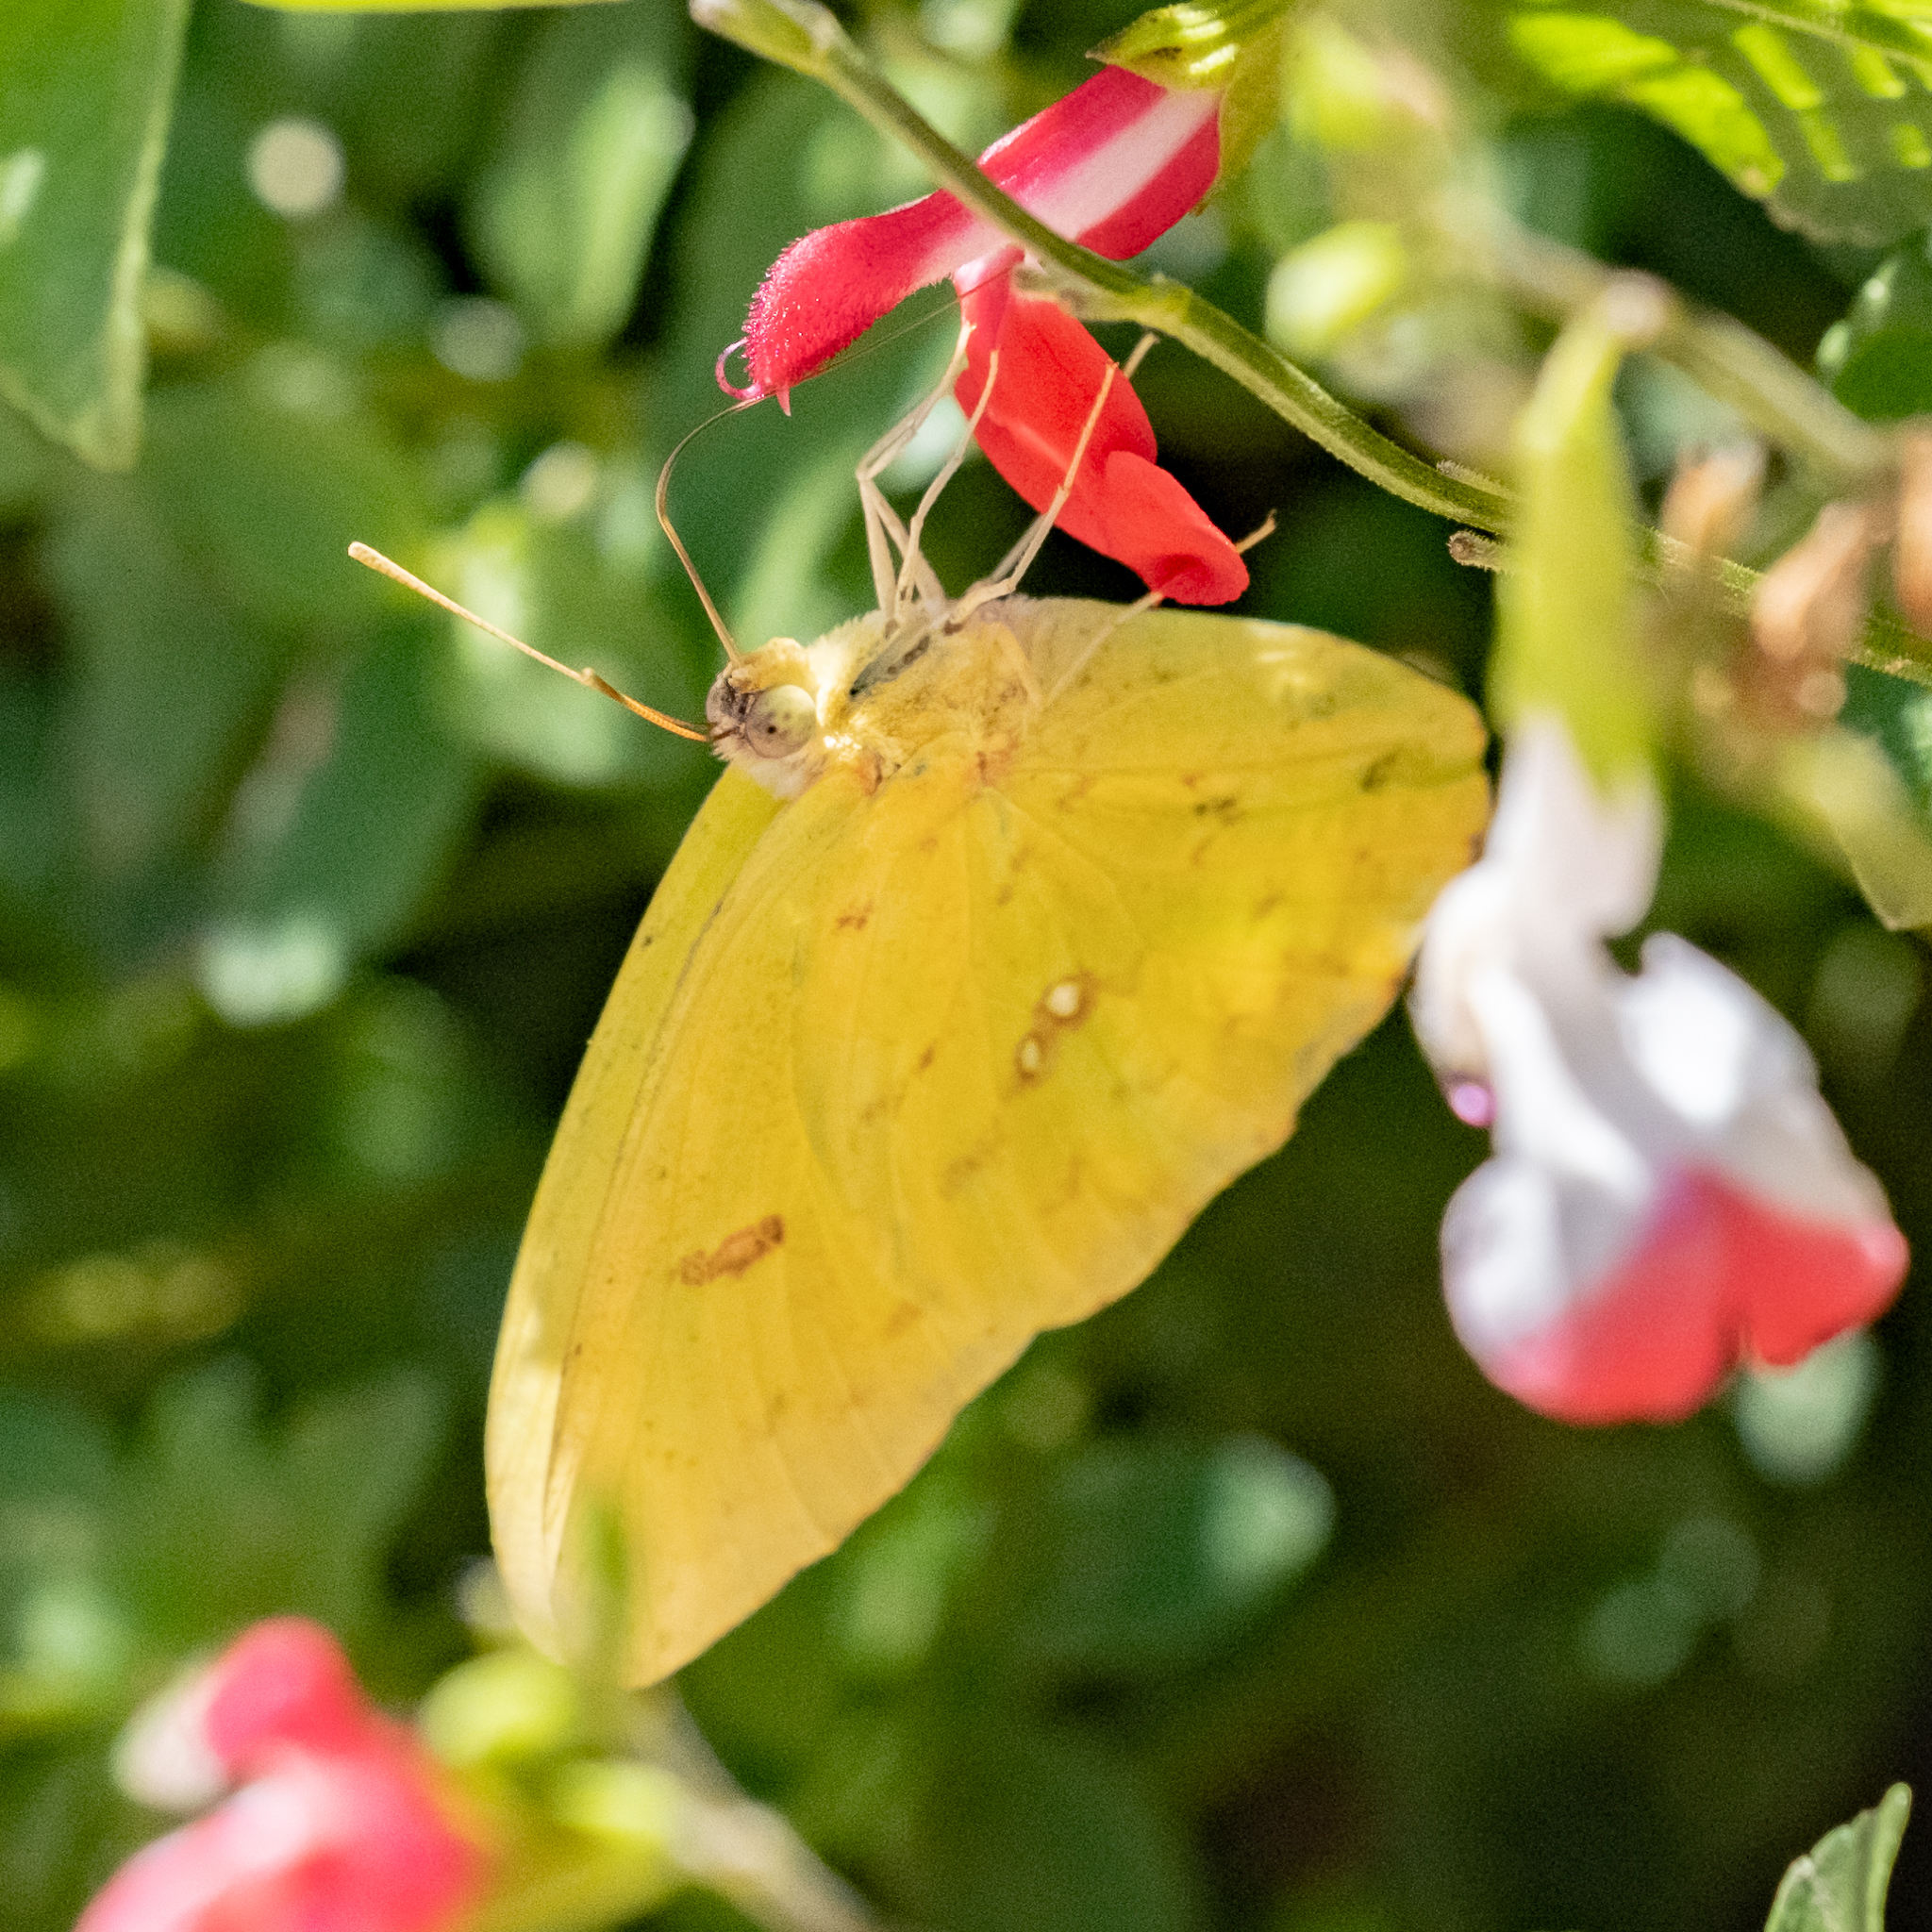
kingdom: Animalia
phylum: Arthropoda
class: Insecta
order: Lepidoptera
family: Pieridae
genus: Phoebis
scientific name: Phoebis sennae
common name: Cloudless sulphur
